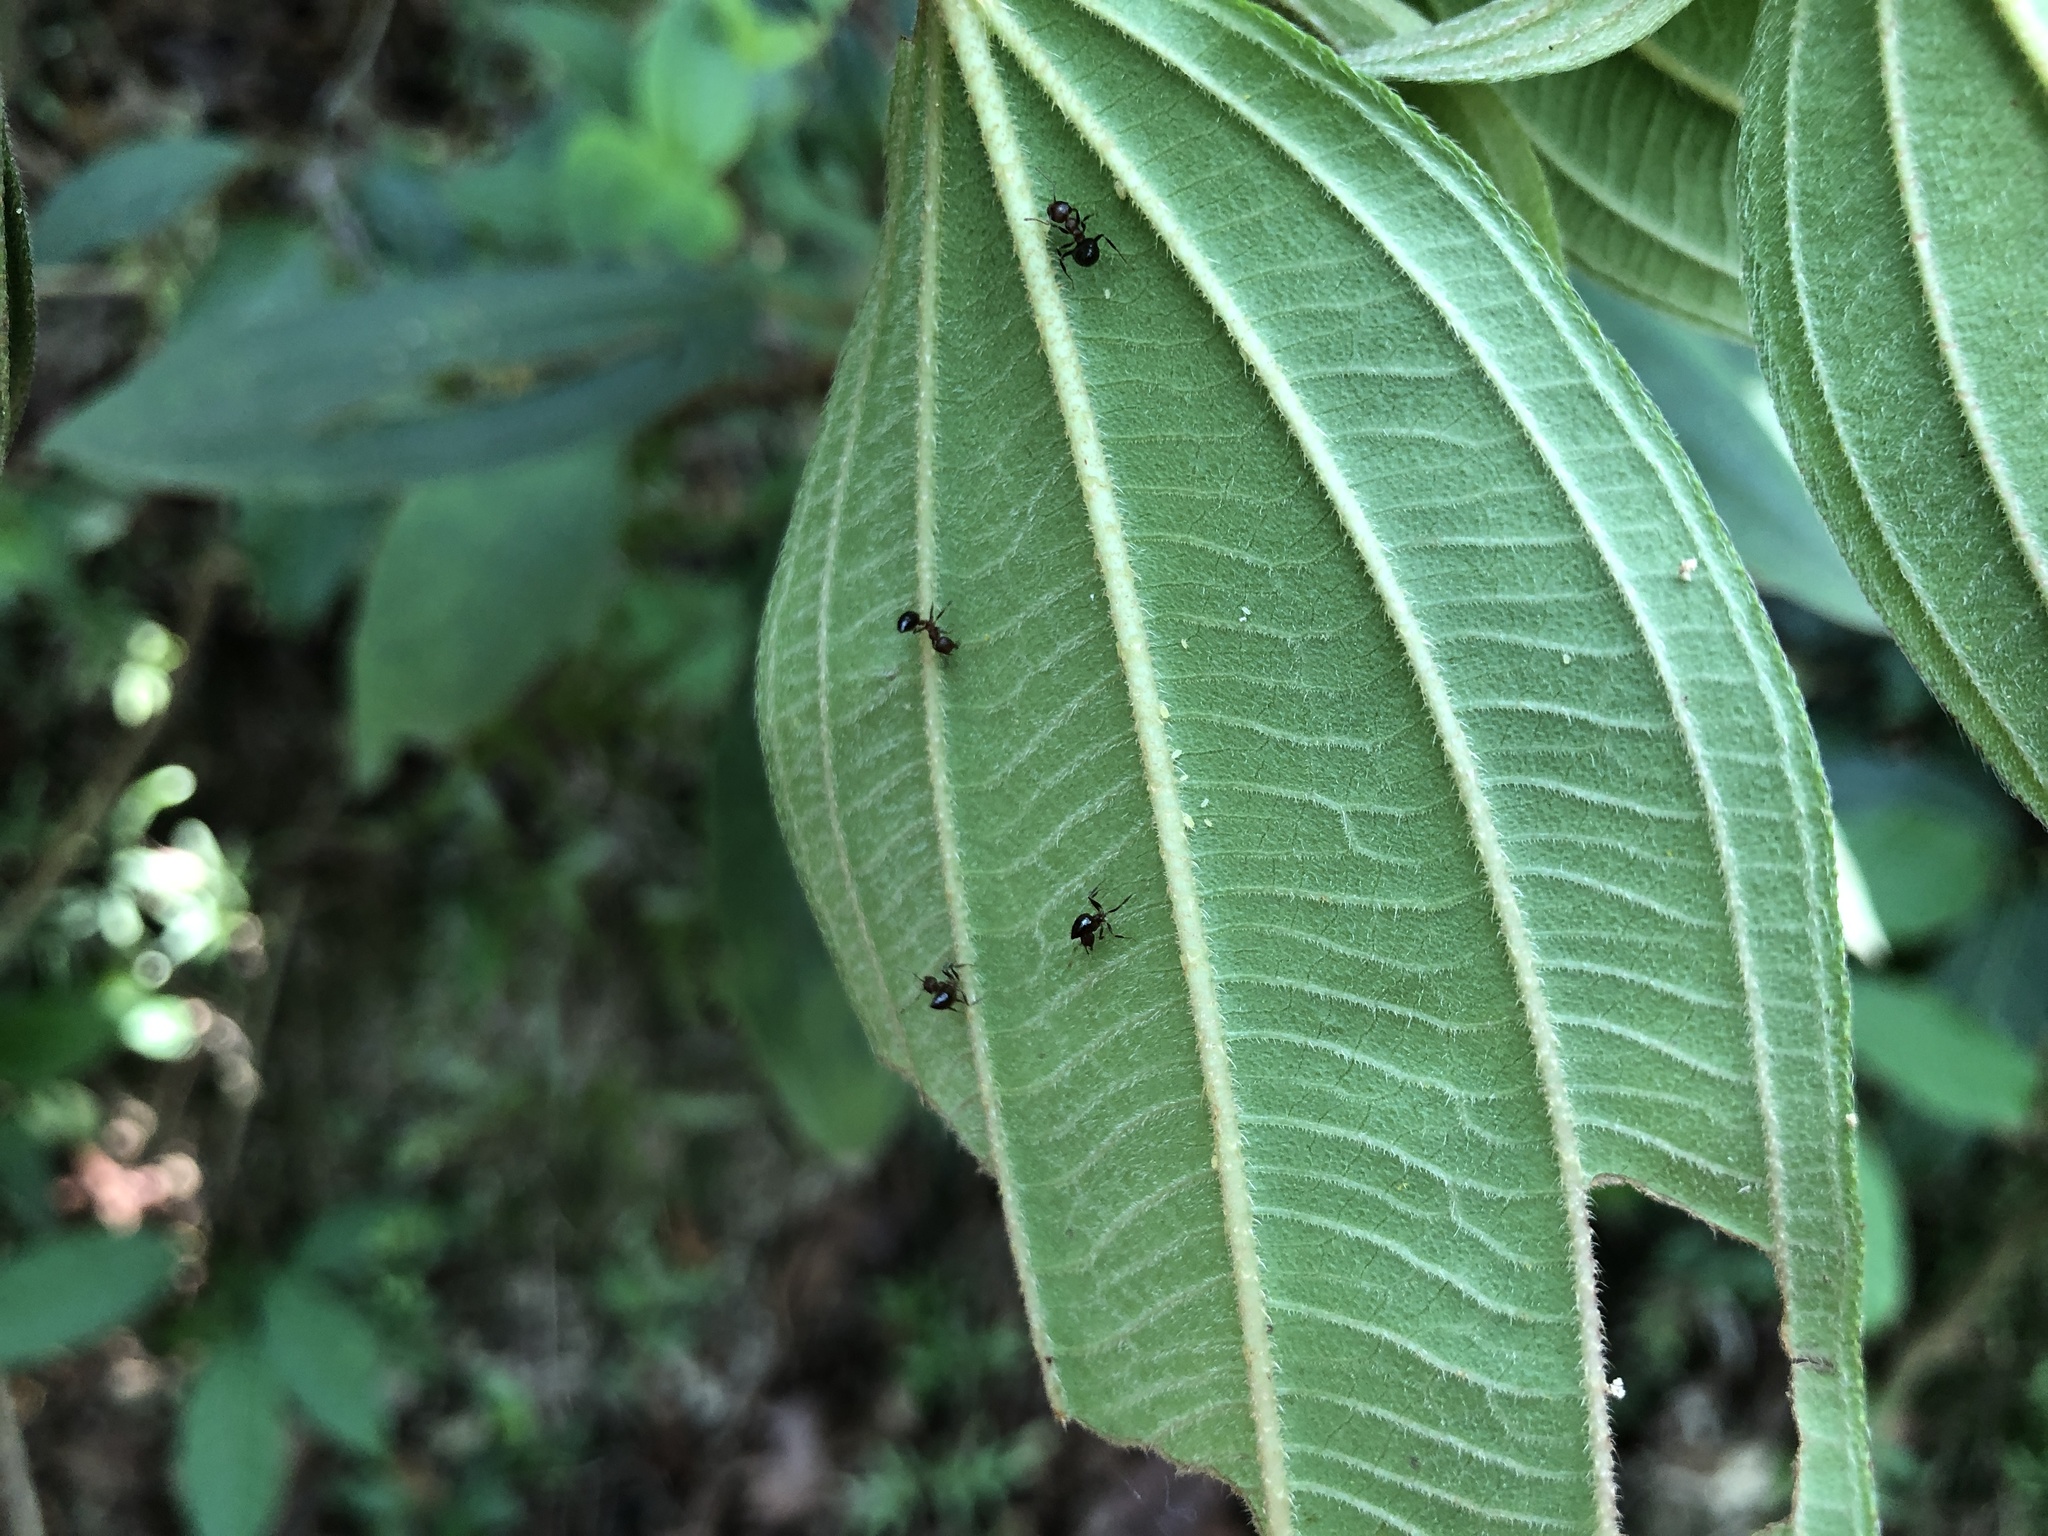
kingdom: Plantae
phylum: Tracheophyta
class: Magnoliopsida
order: Myrtales
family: Melastomataceae
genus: Melastoma
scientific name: Melastoma malabathricum
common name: Indian-rhododendron
